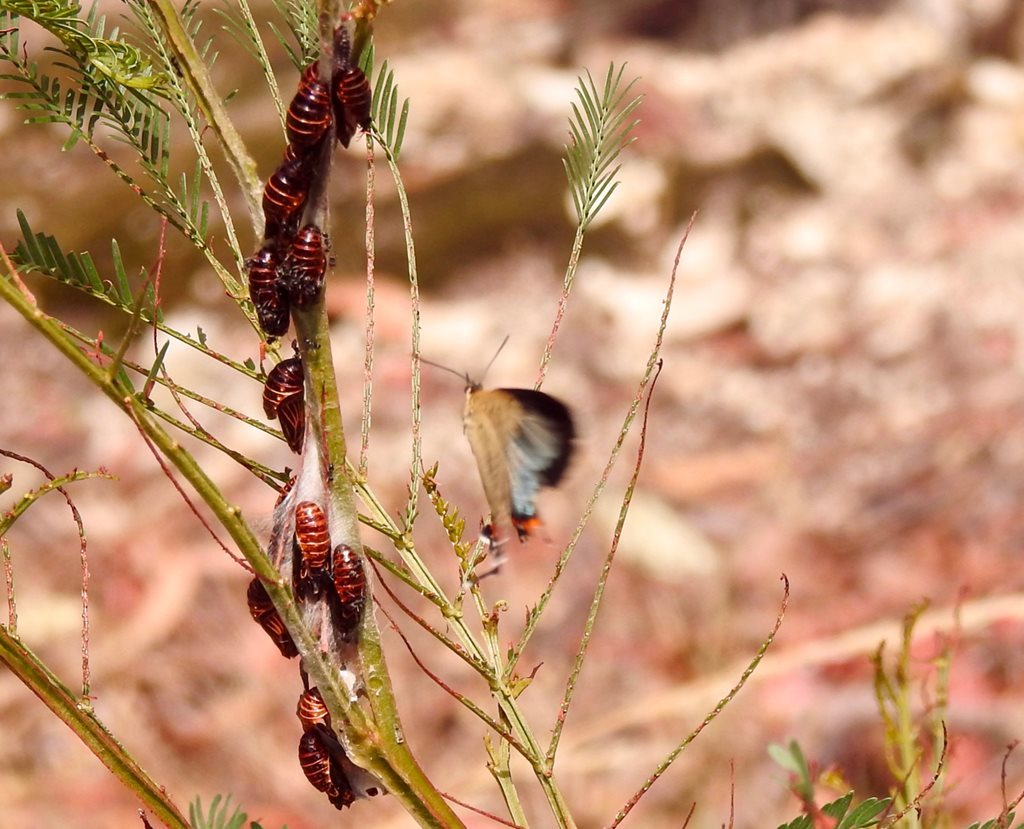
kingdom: Animalia
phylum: Arthropoda
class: Insecta
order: Lepidoptera
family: Lycaenidae
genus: Jalmenus
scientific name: Jalmenus evagoras
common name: Common imperial blue
